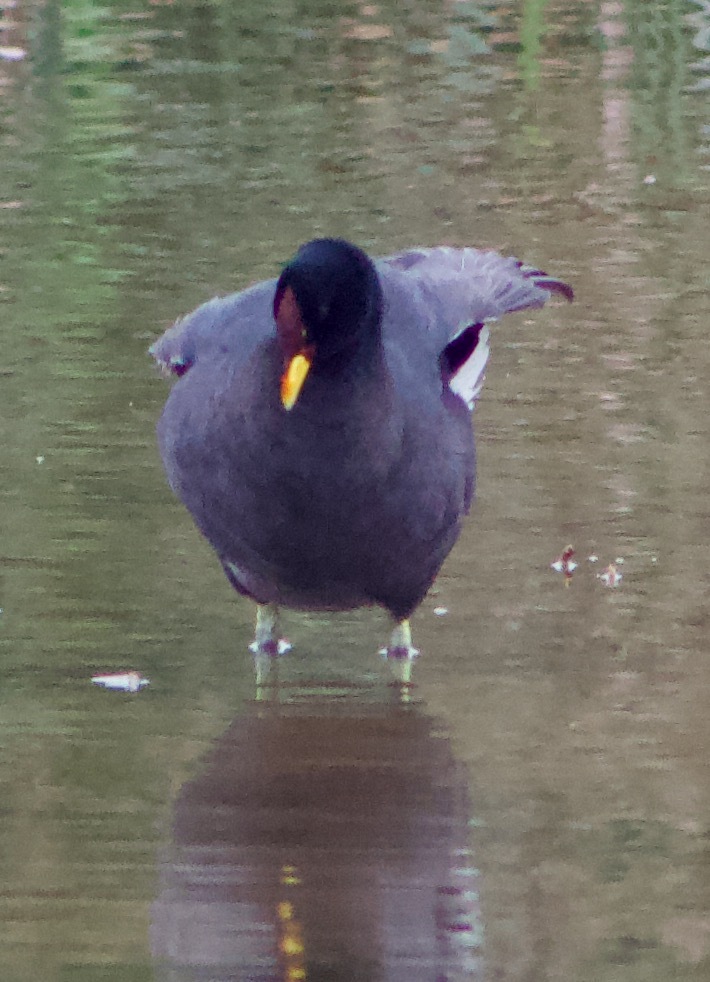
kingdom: Animalia
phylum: Chordata
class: Aves
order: Gruiformes
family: Rallidae
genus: Fulica
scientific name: Fulica rufifrons
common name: Red-fronted coot
